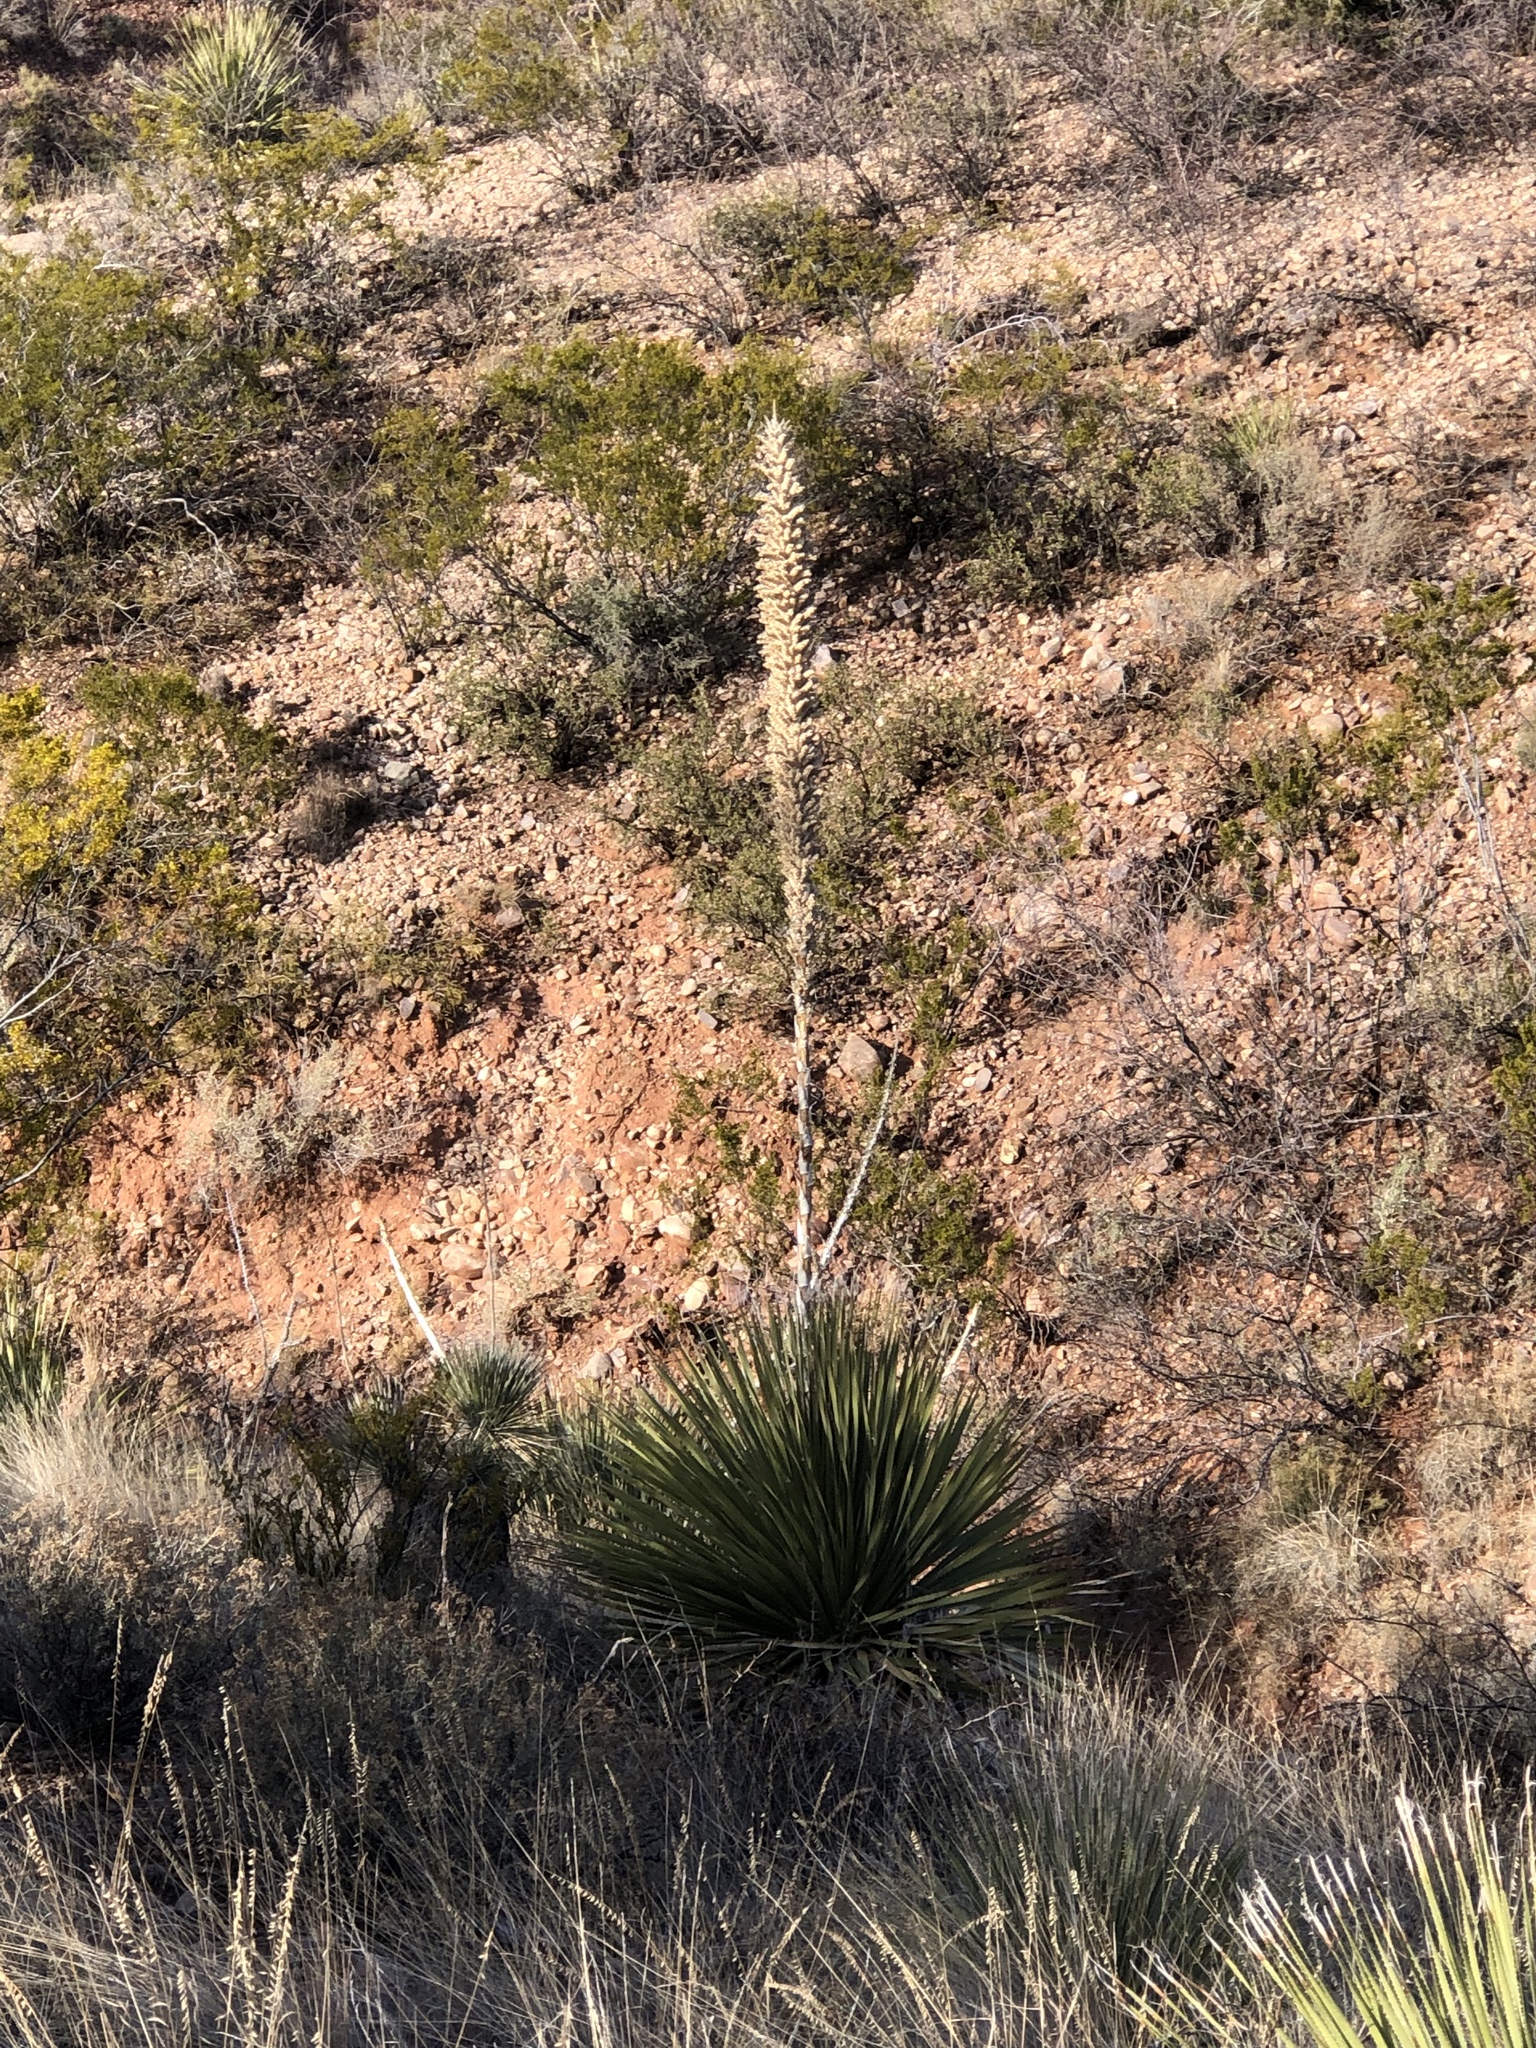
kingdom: Plantae
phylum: Tracheophyta
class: Liliopsida
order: Asparagales
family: Asparagaceae
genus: Dasylirion
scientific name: Dasylirion wheeleri
